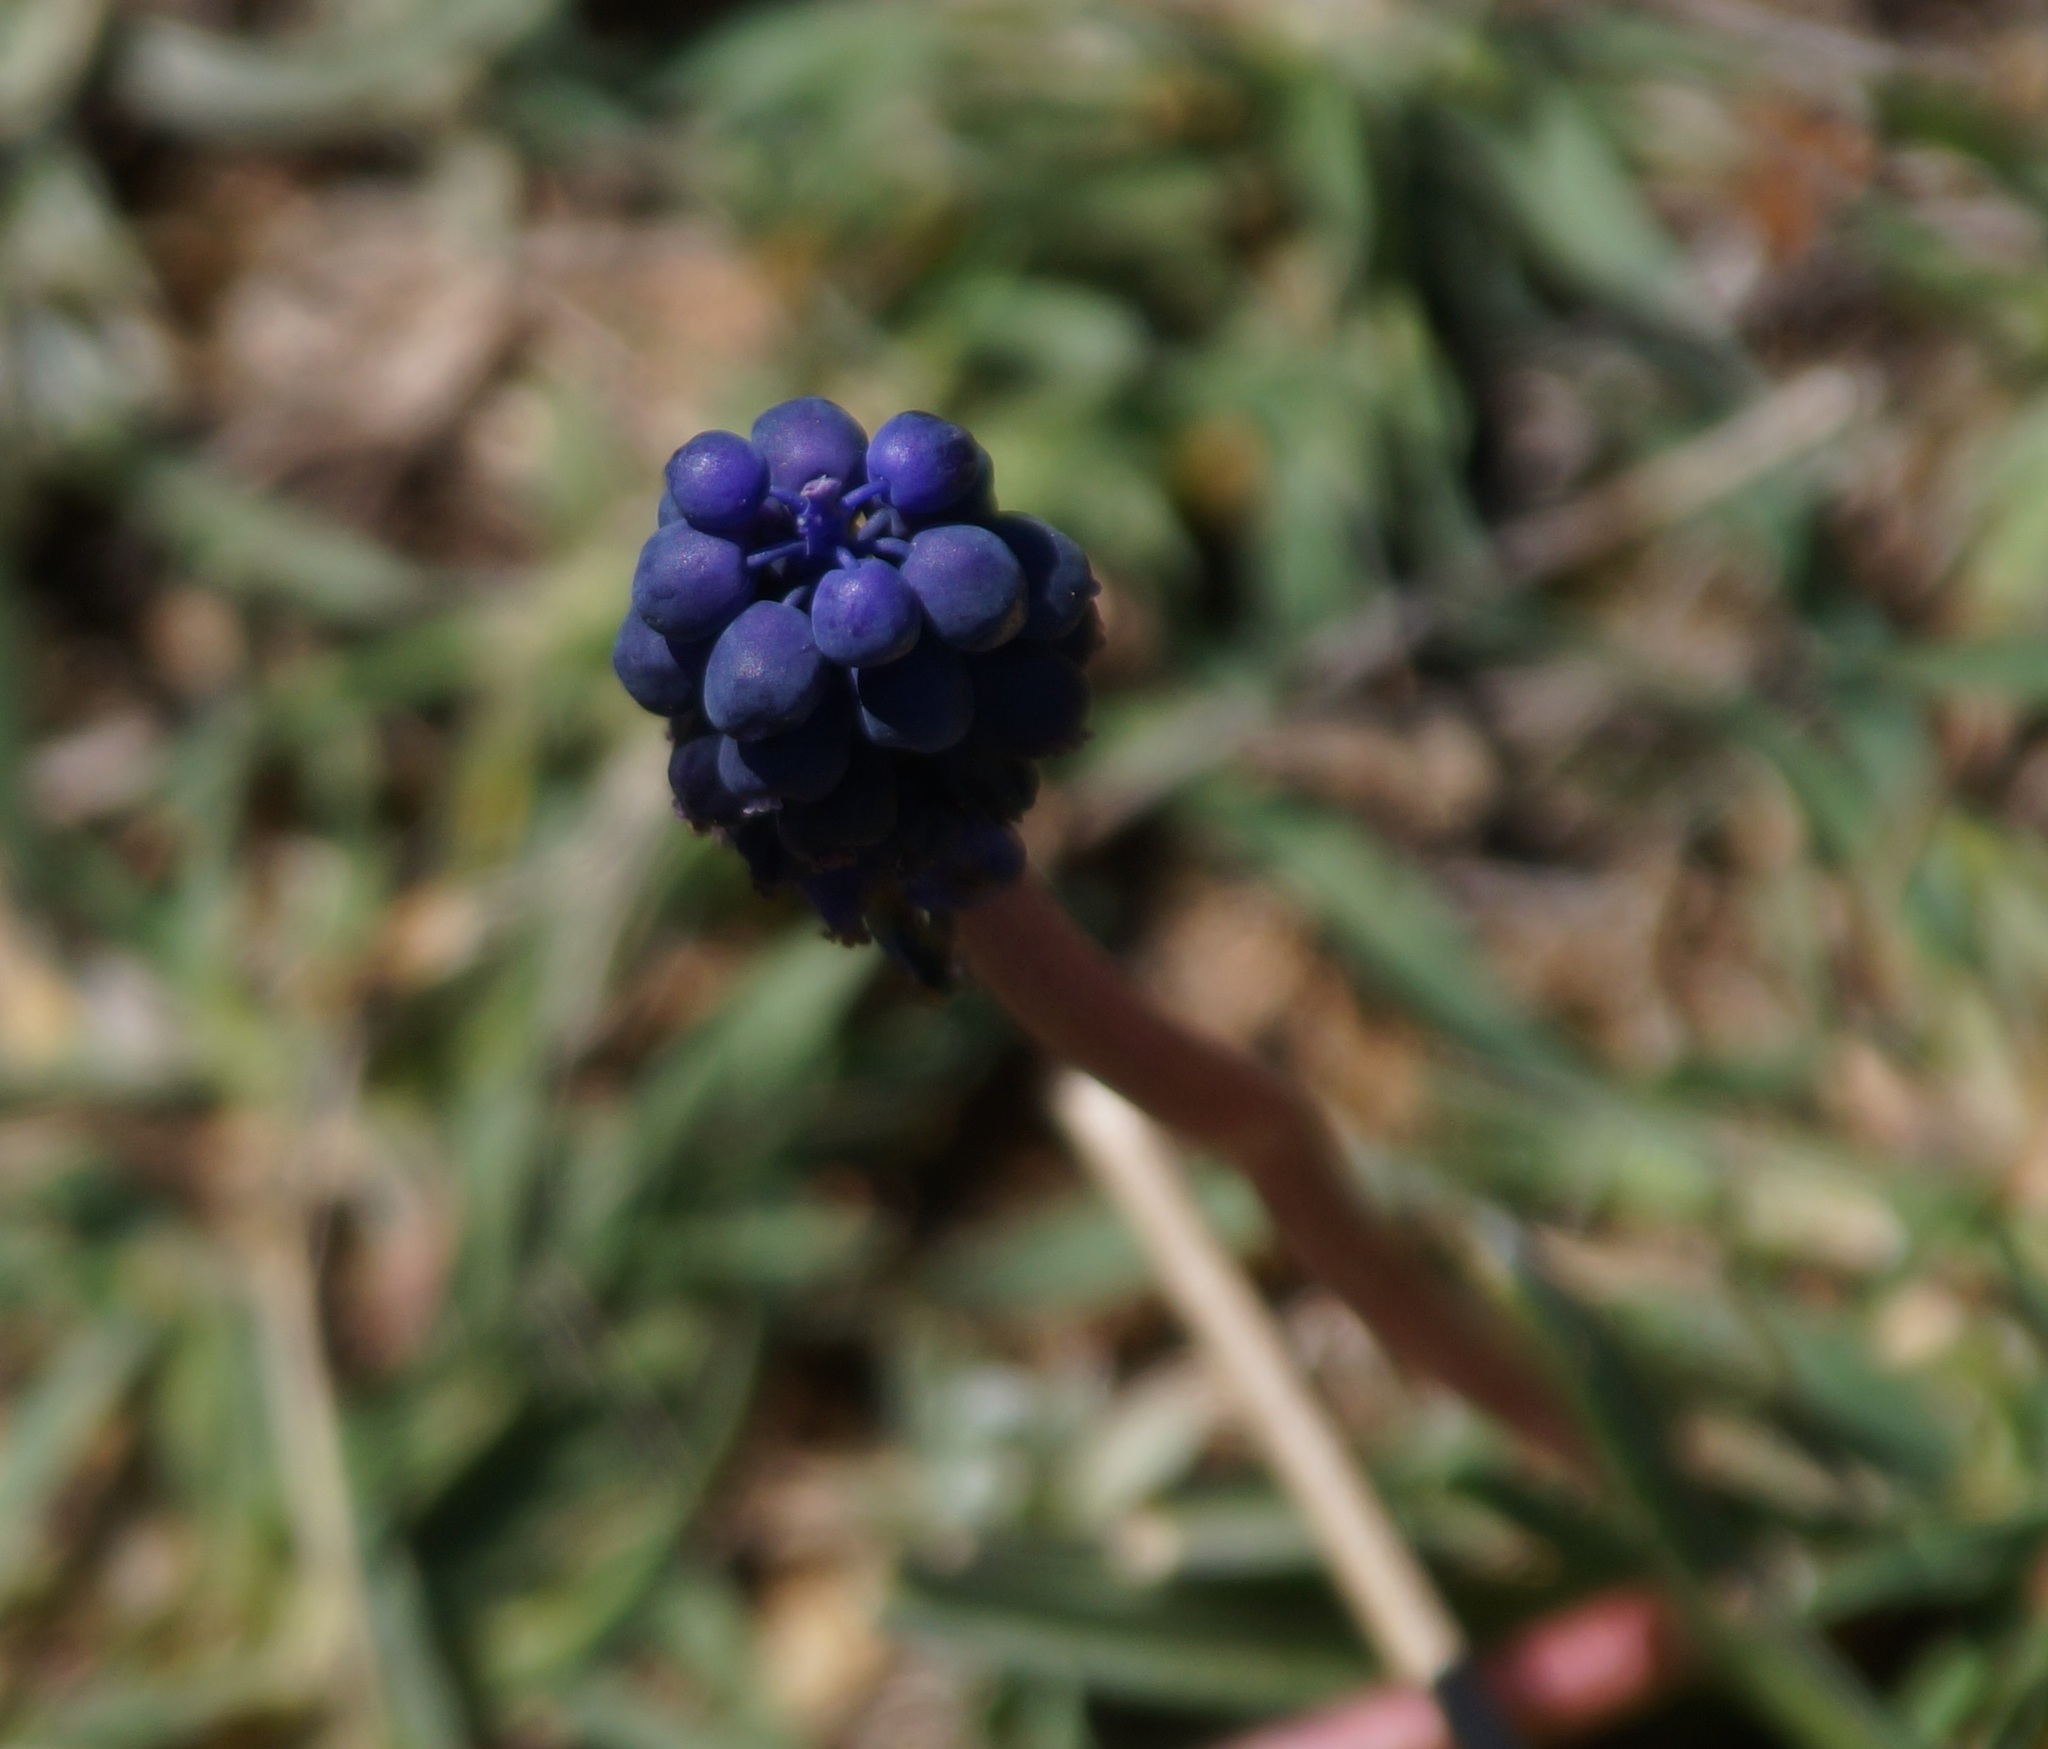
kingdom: Plantae
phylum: Tracheophyta
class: Liliopsida
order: Asparagales
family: Asparagaceae
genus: Muscari
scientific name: Muscari neglectum
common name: Grape-hyacinth
